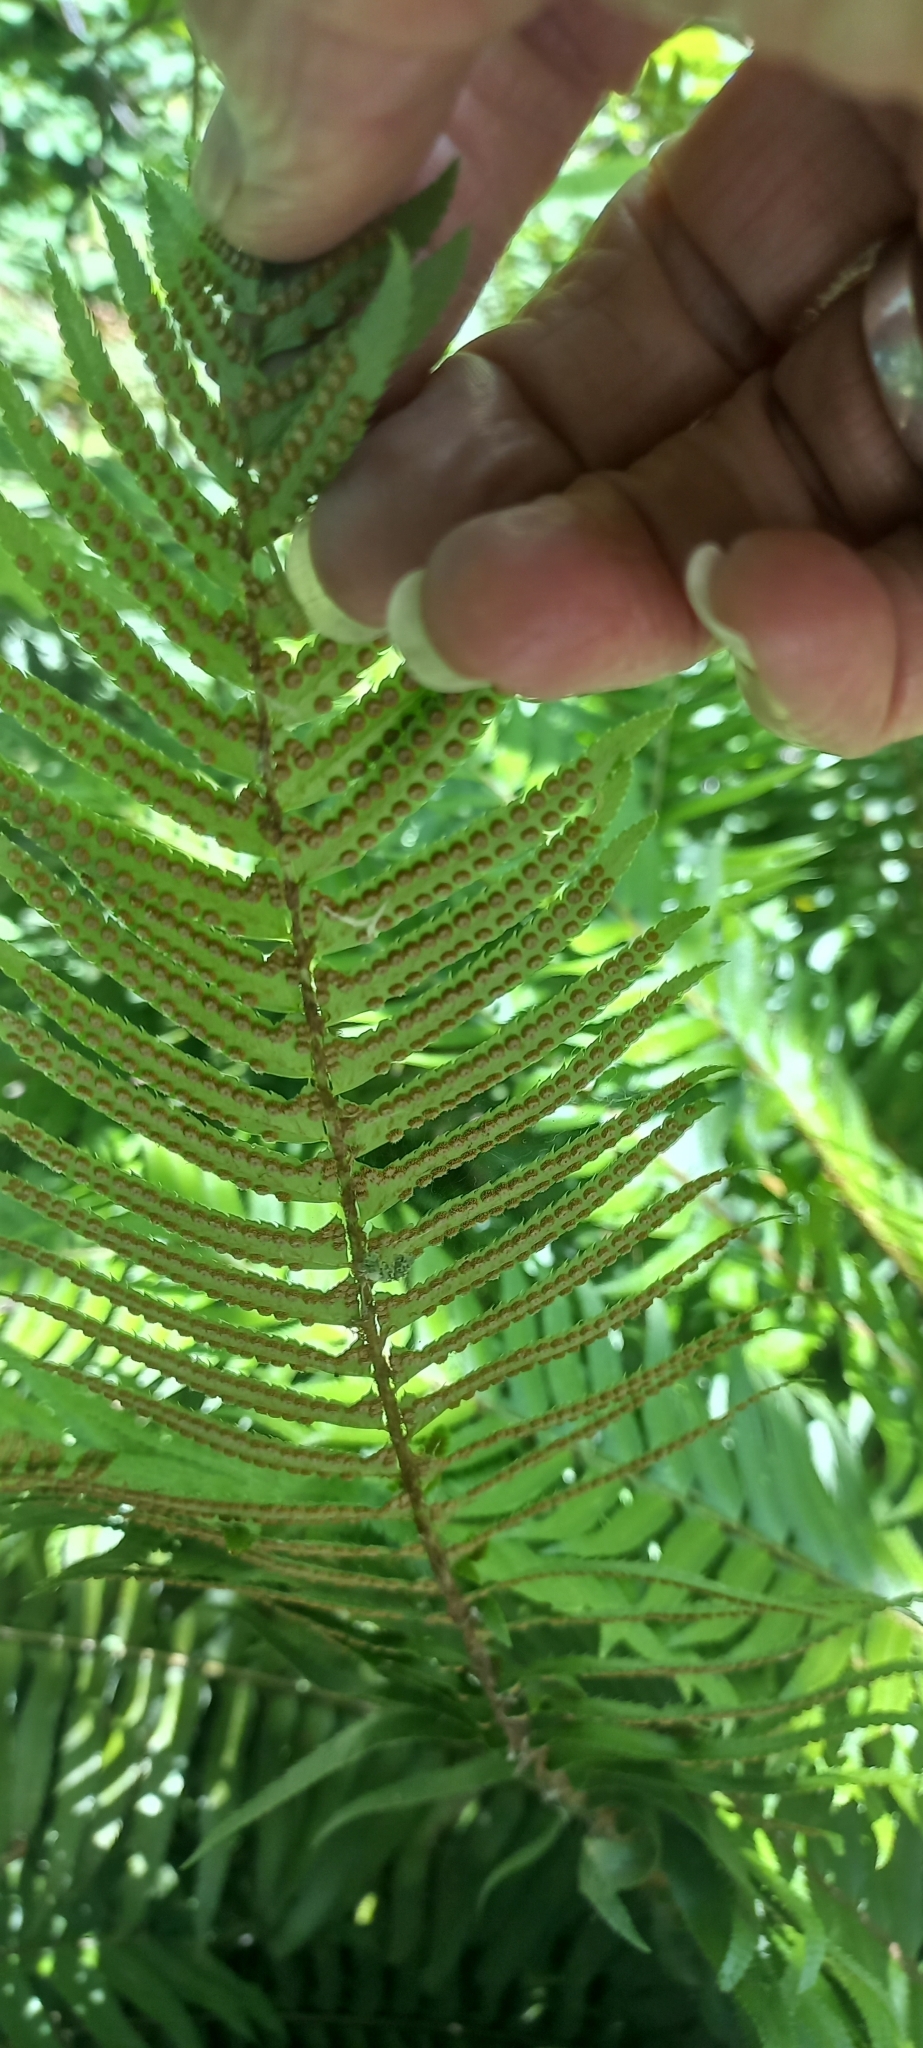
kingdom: Plantae
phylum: Tracheophyta
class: Polypodiopsida
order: Polypodiales
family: Dryopteridaceae
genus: Polystichum
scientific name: Polystichum munitum
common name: Western sword-fern
